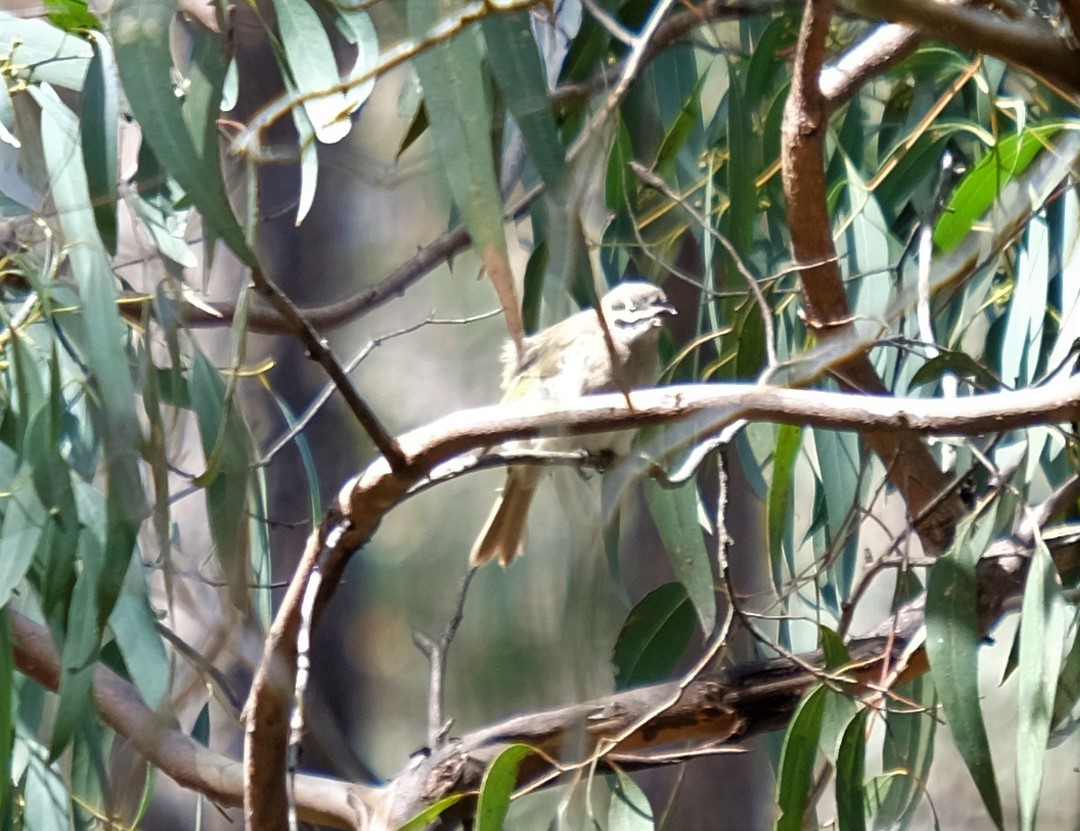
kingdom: Animalia
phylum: Chordata
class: Aves
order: Passeriformes
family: Meliphagidae
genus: Caligavis
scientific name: Caligavis chrysops
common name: Yellow-faced honeyeater
